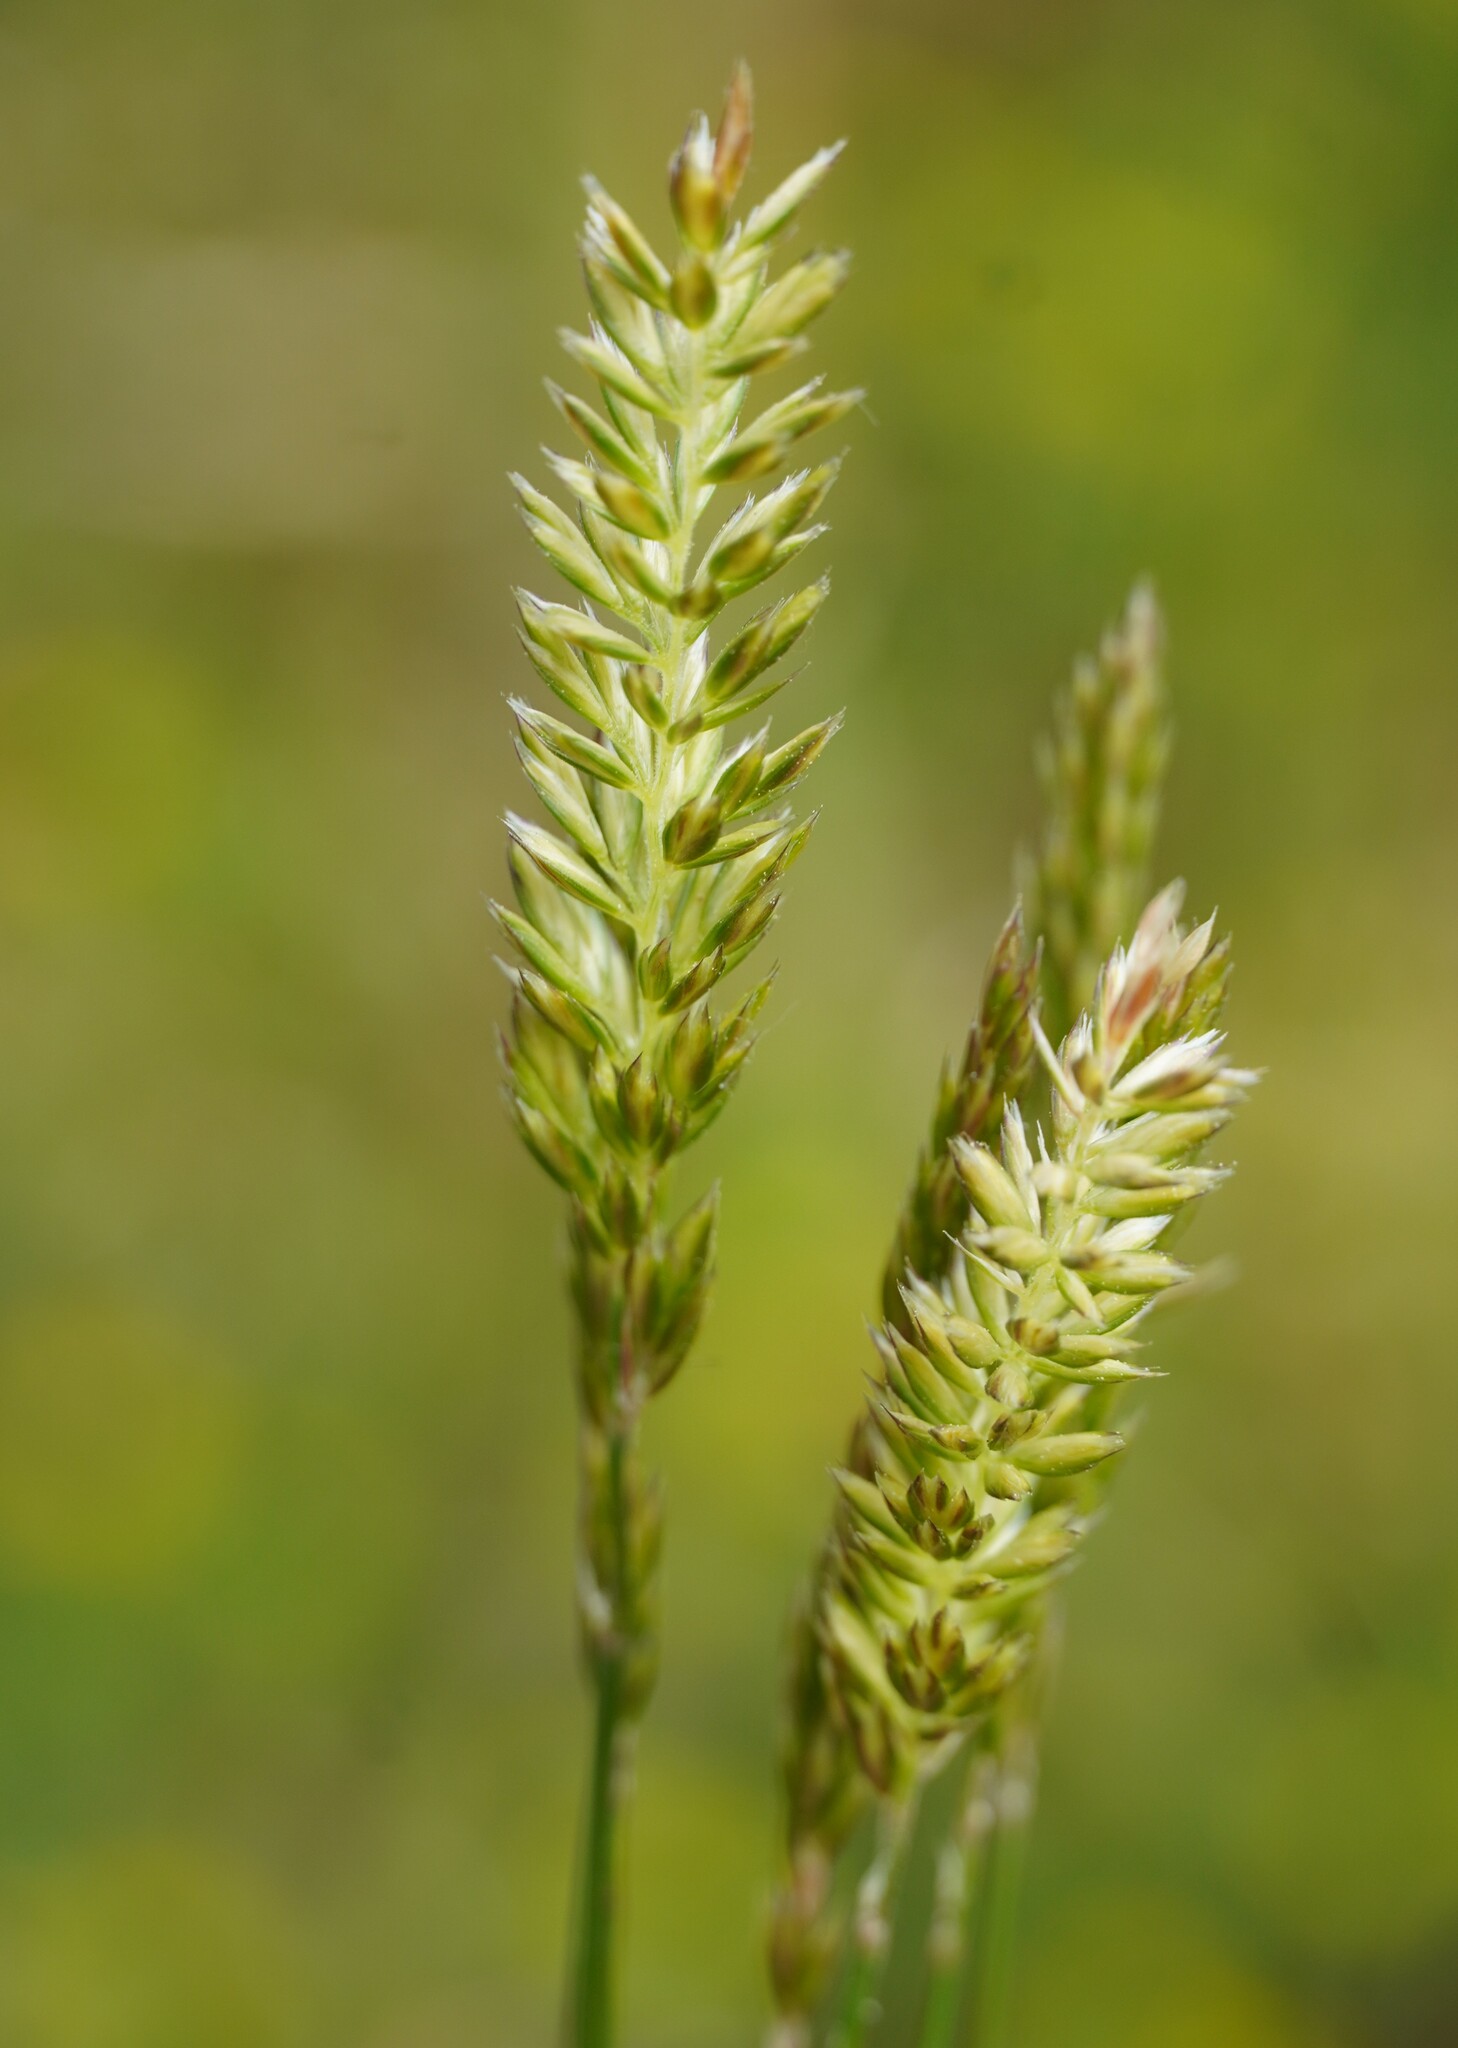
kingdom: Plantae
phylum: Tracheophyta
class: Liliopsida
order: Poales
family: Poaceae
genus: Koeleria
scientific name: Koeleria macrantha
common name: Crested hair-grass
